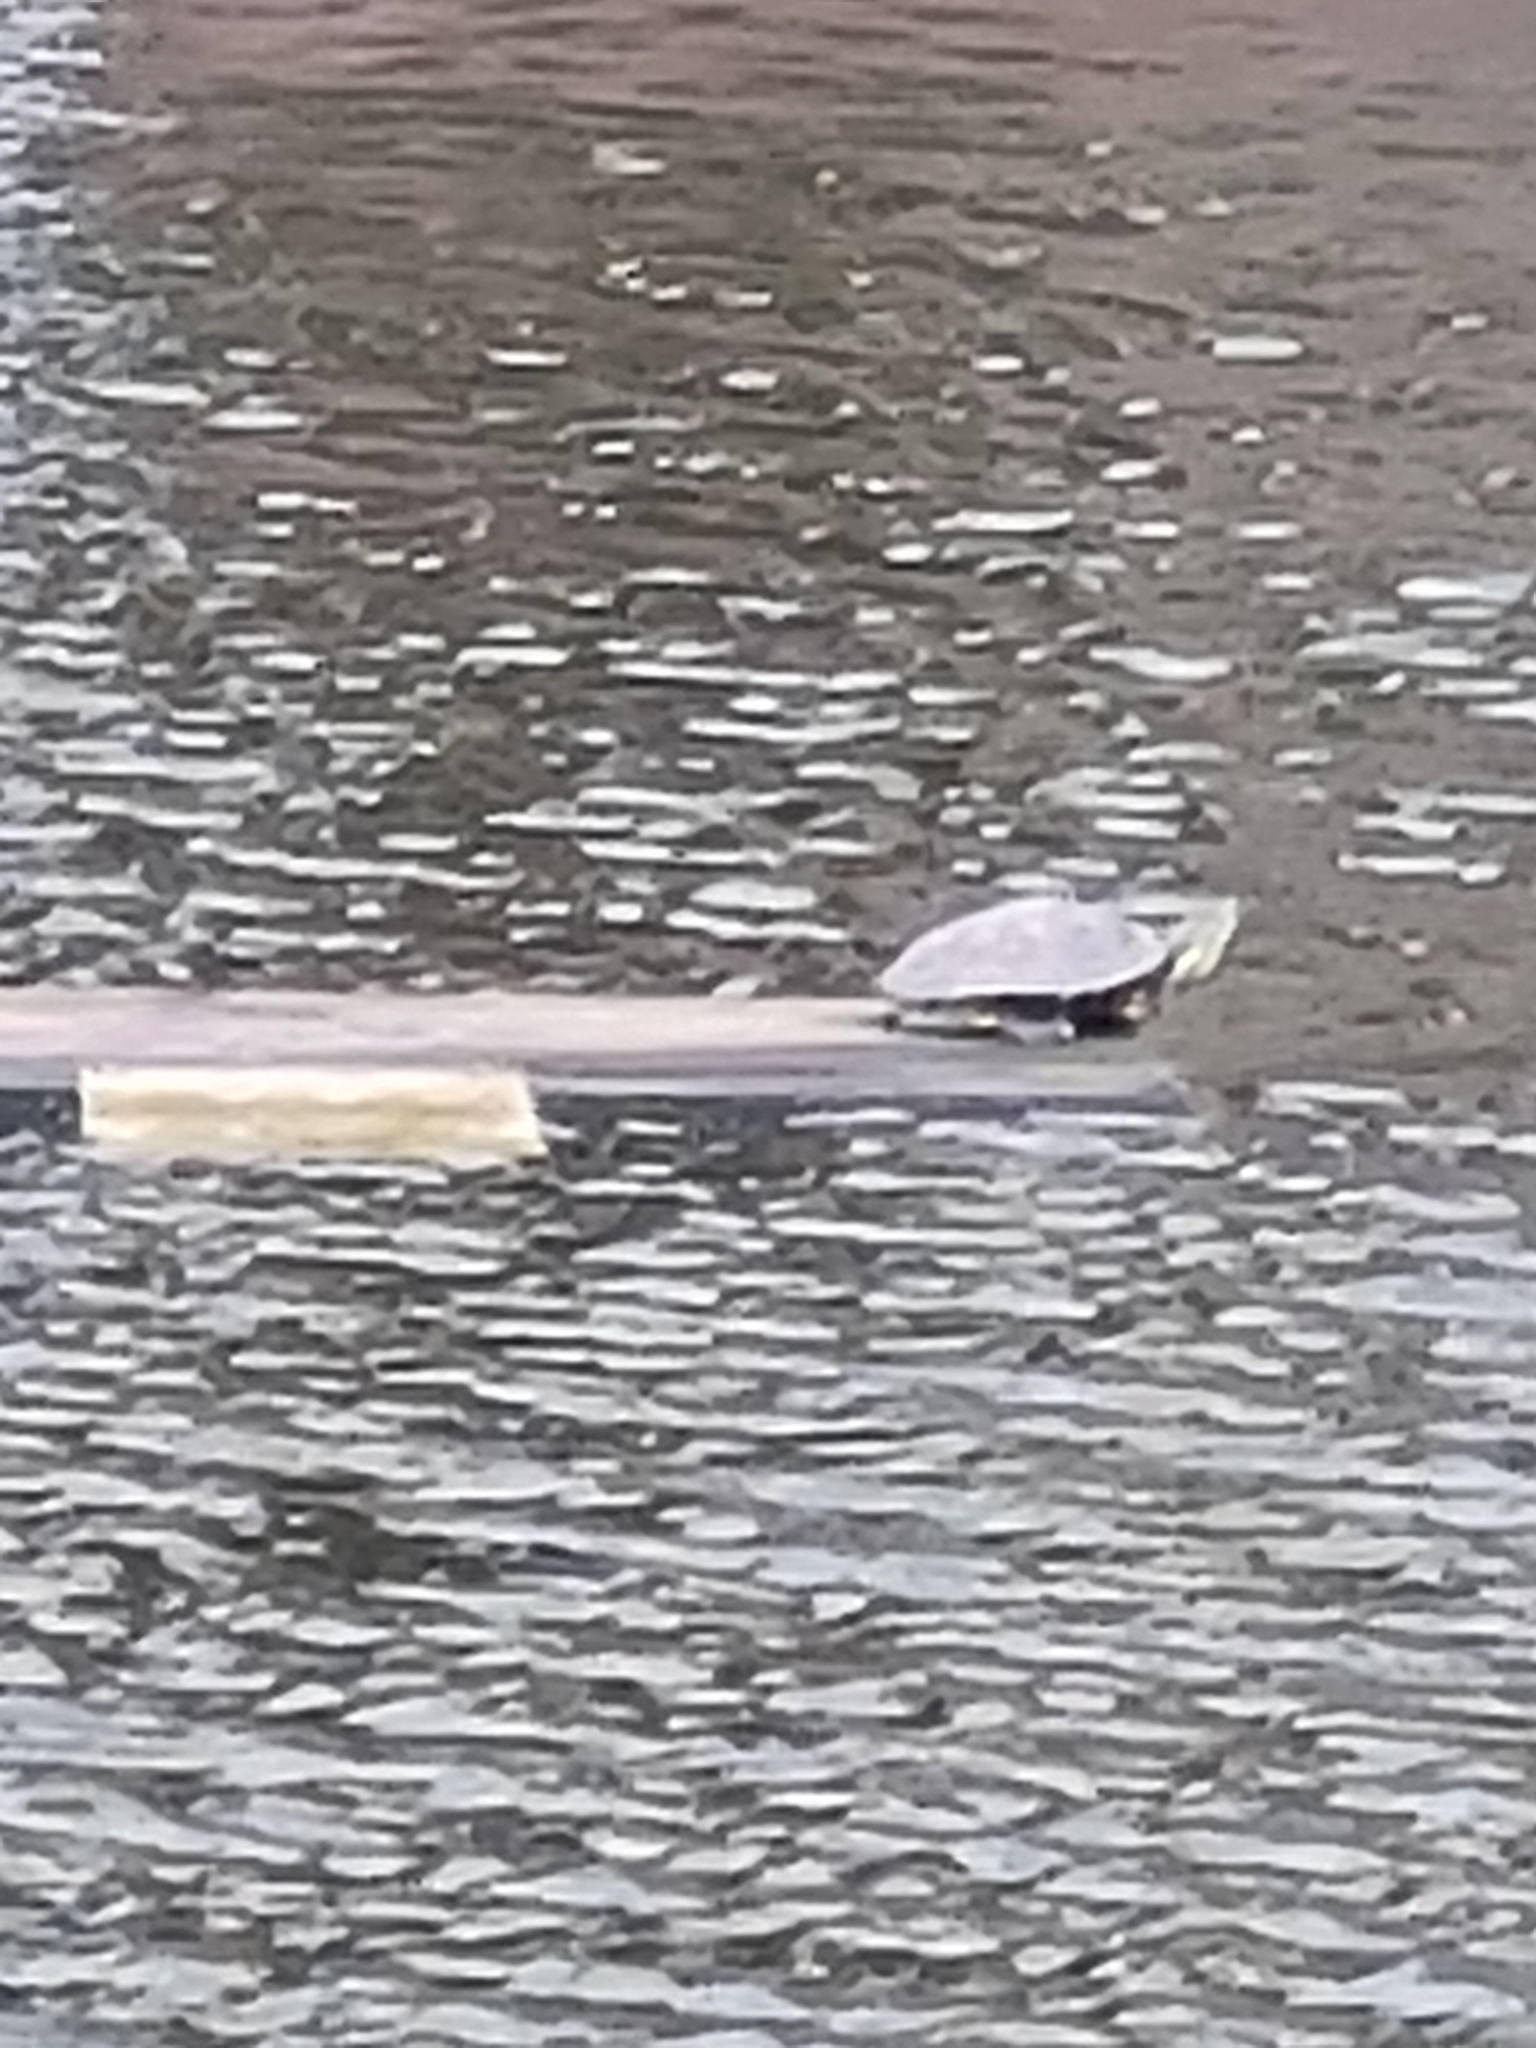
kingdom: Animalia
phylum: Chordata
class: Testudines
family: Emydidae
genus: Trachemys
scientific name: Trachemys scripta
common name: Slider
